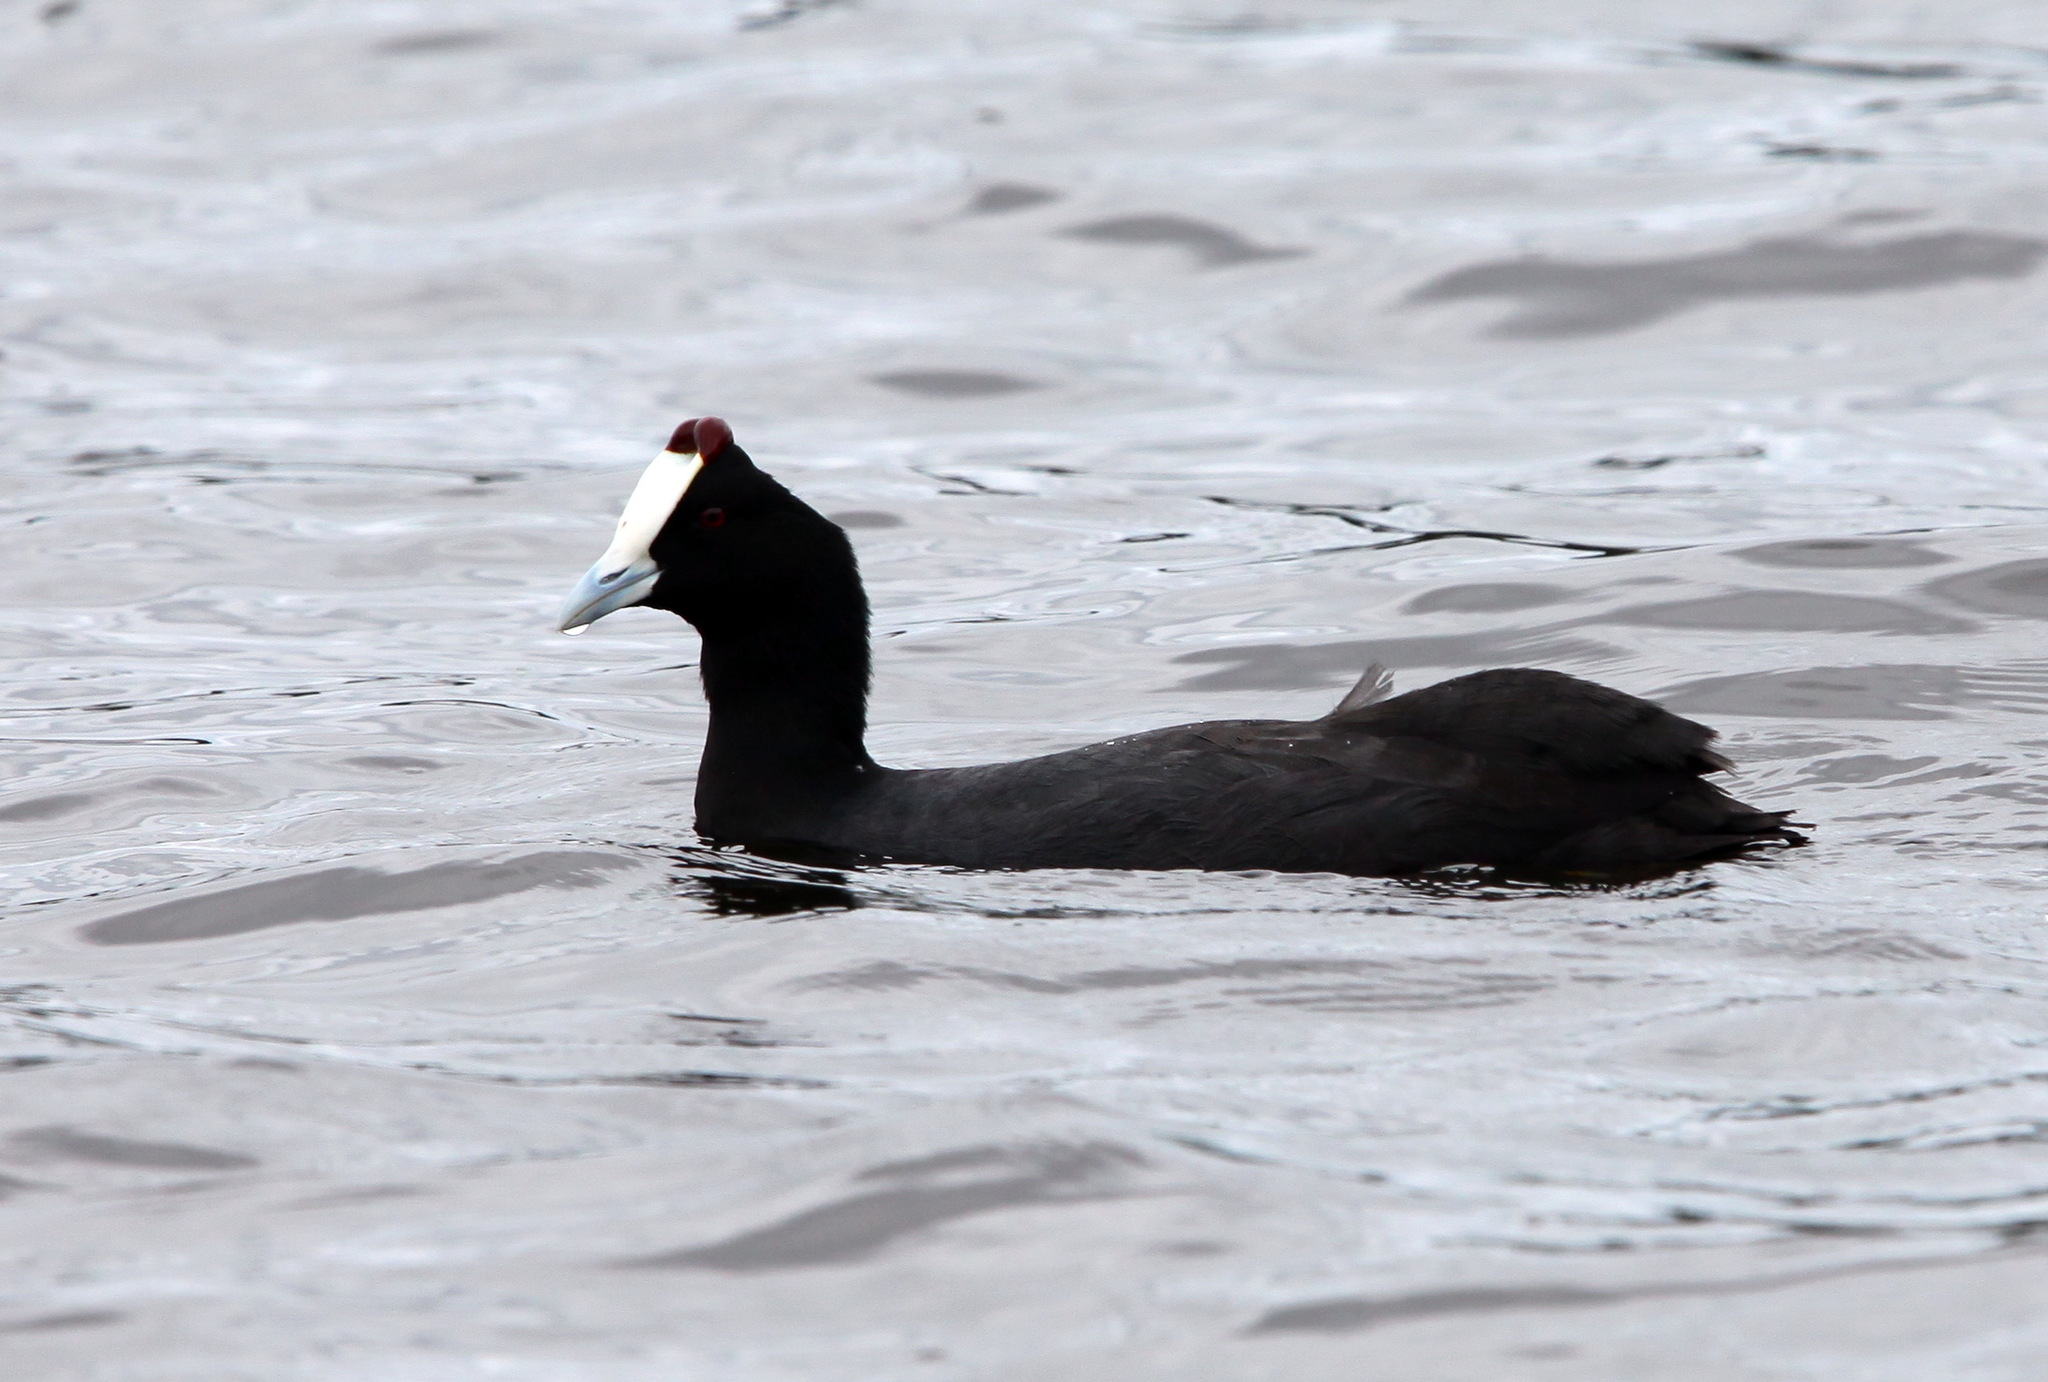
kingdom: Animalia
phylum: Chordata
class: Aves
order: Gruiformes
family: Rallidae
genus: Fulica
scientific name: Fulica cristata
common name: Red-knobbed coot
